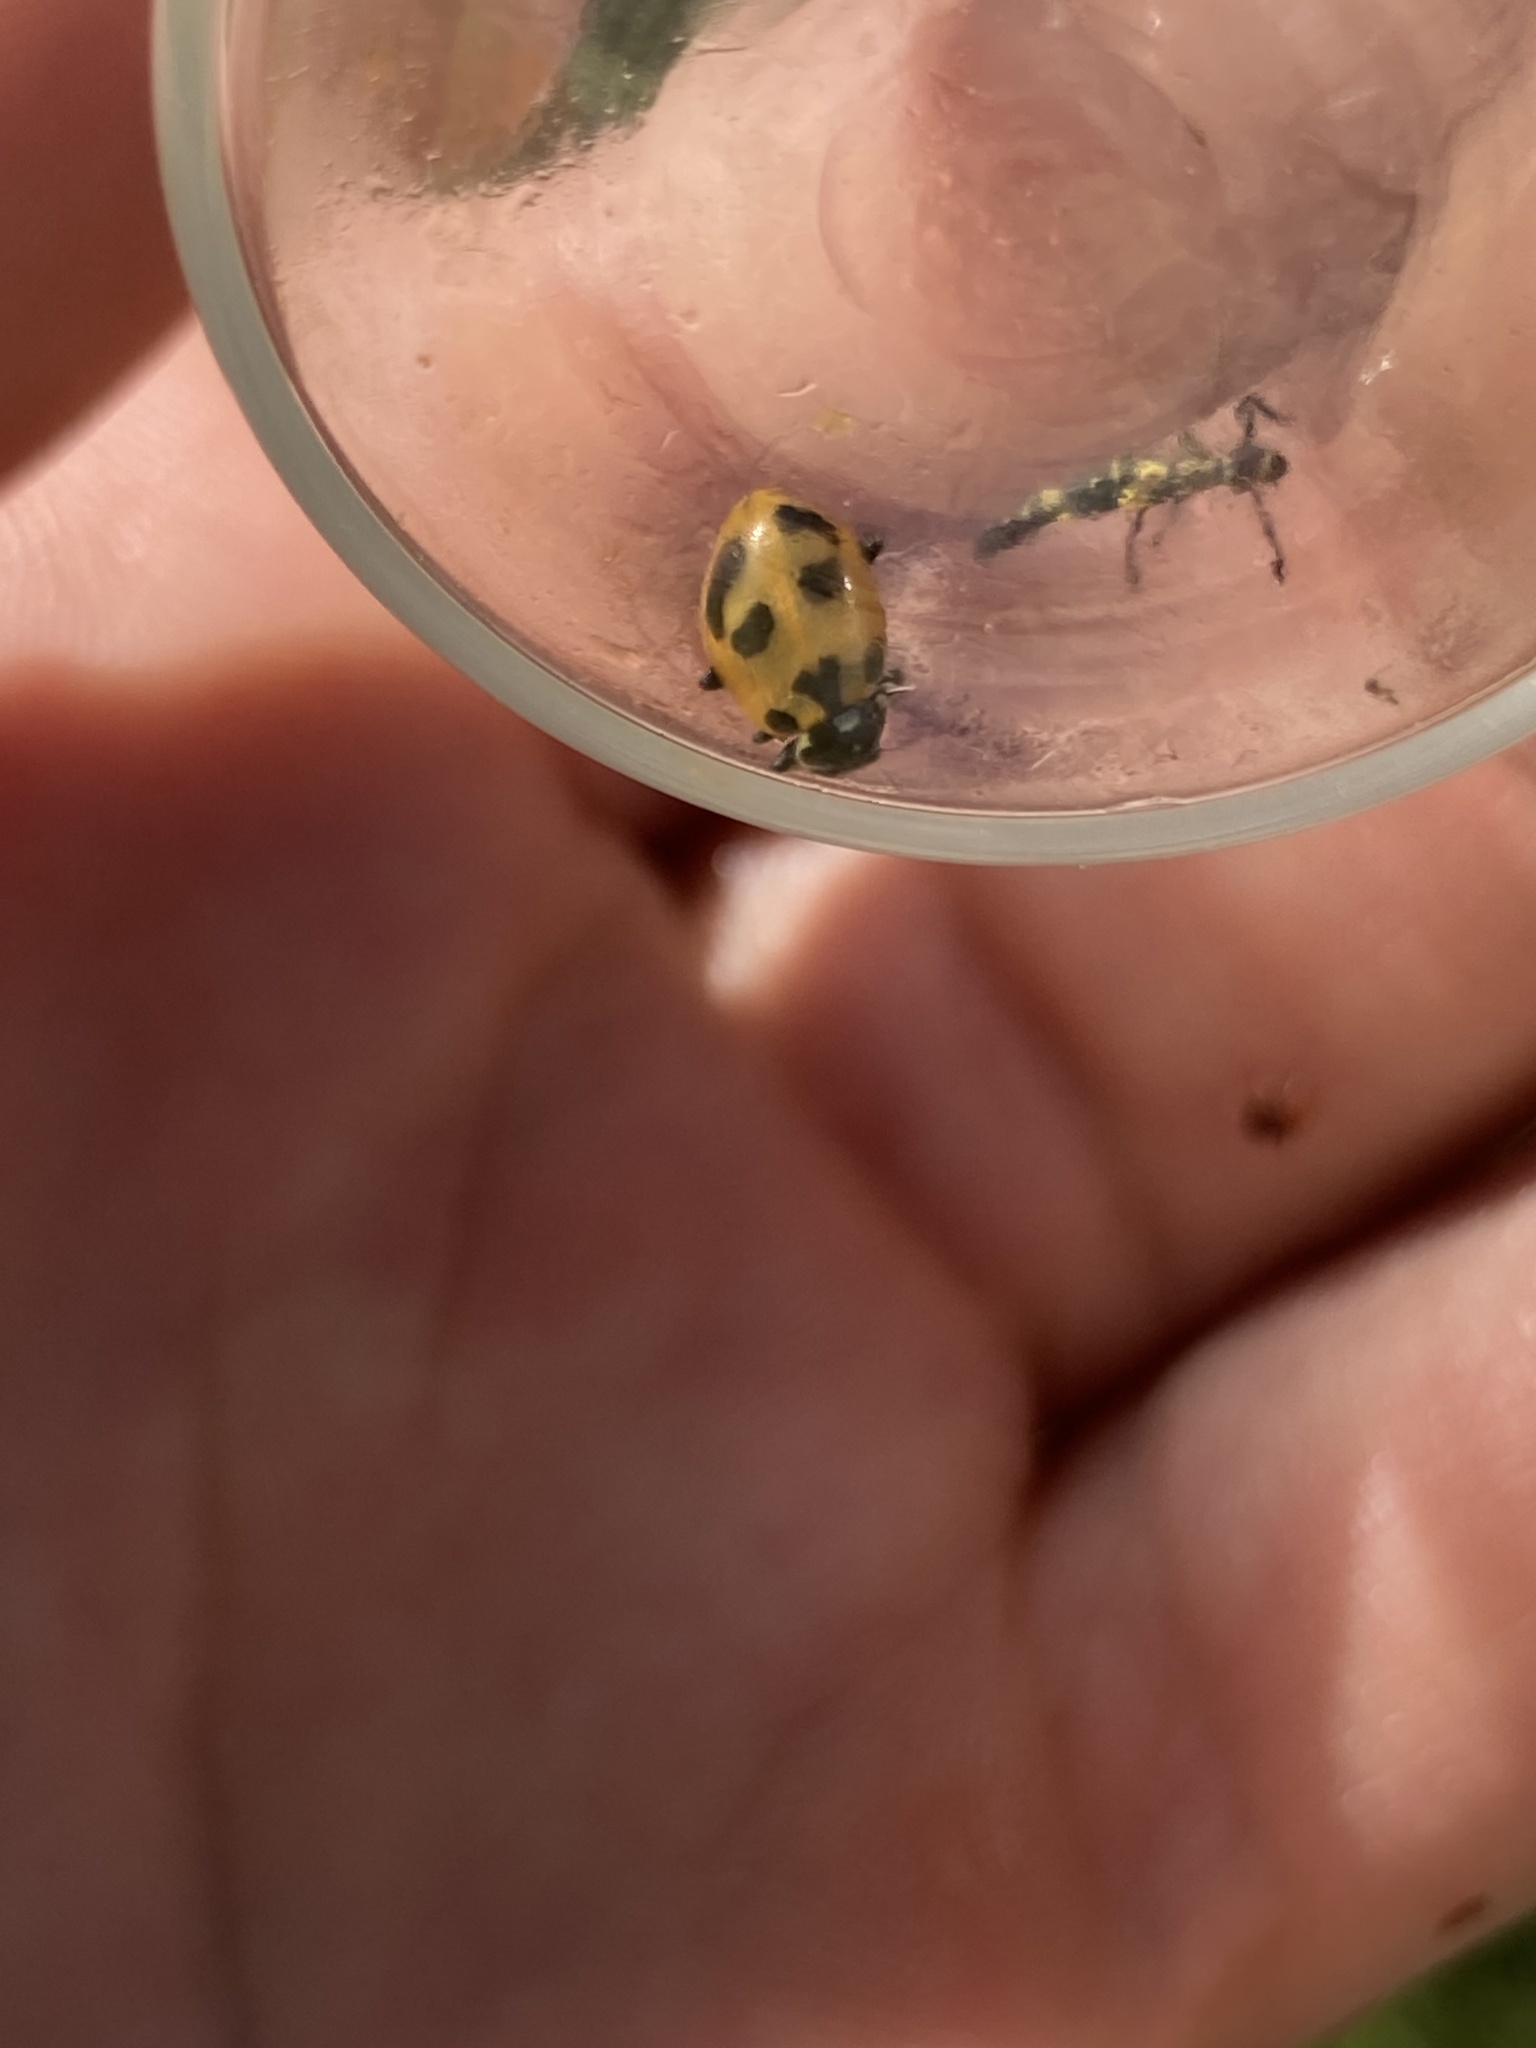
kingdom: Animalia
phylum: Arthropoda
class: Insecta
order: Coleoptera
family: Coccinellidae
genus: Hippodamia
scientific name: Hippodamia parenthesis
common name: Parenthesis lady beetle
